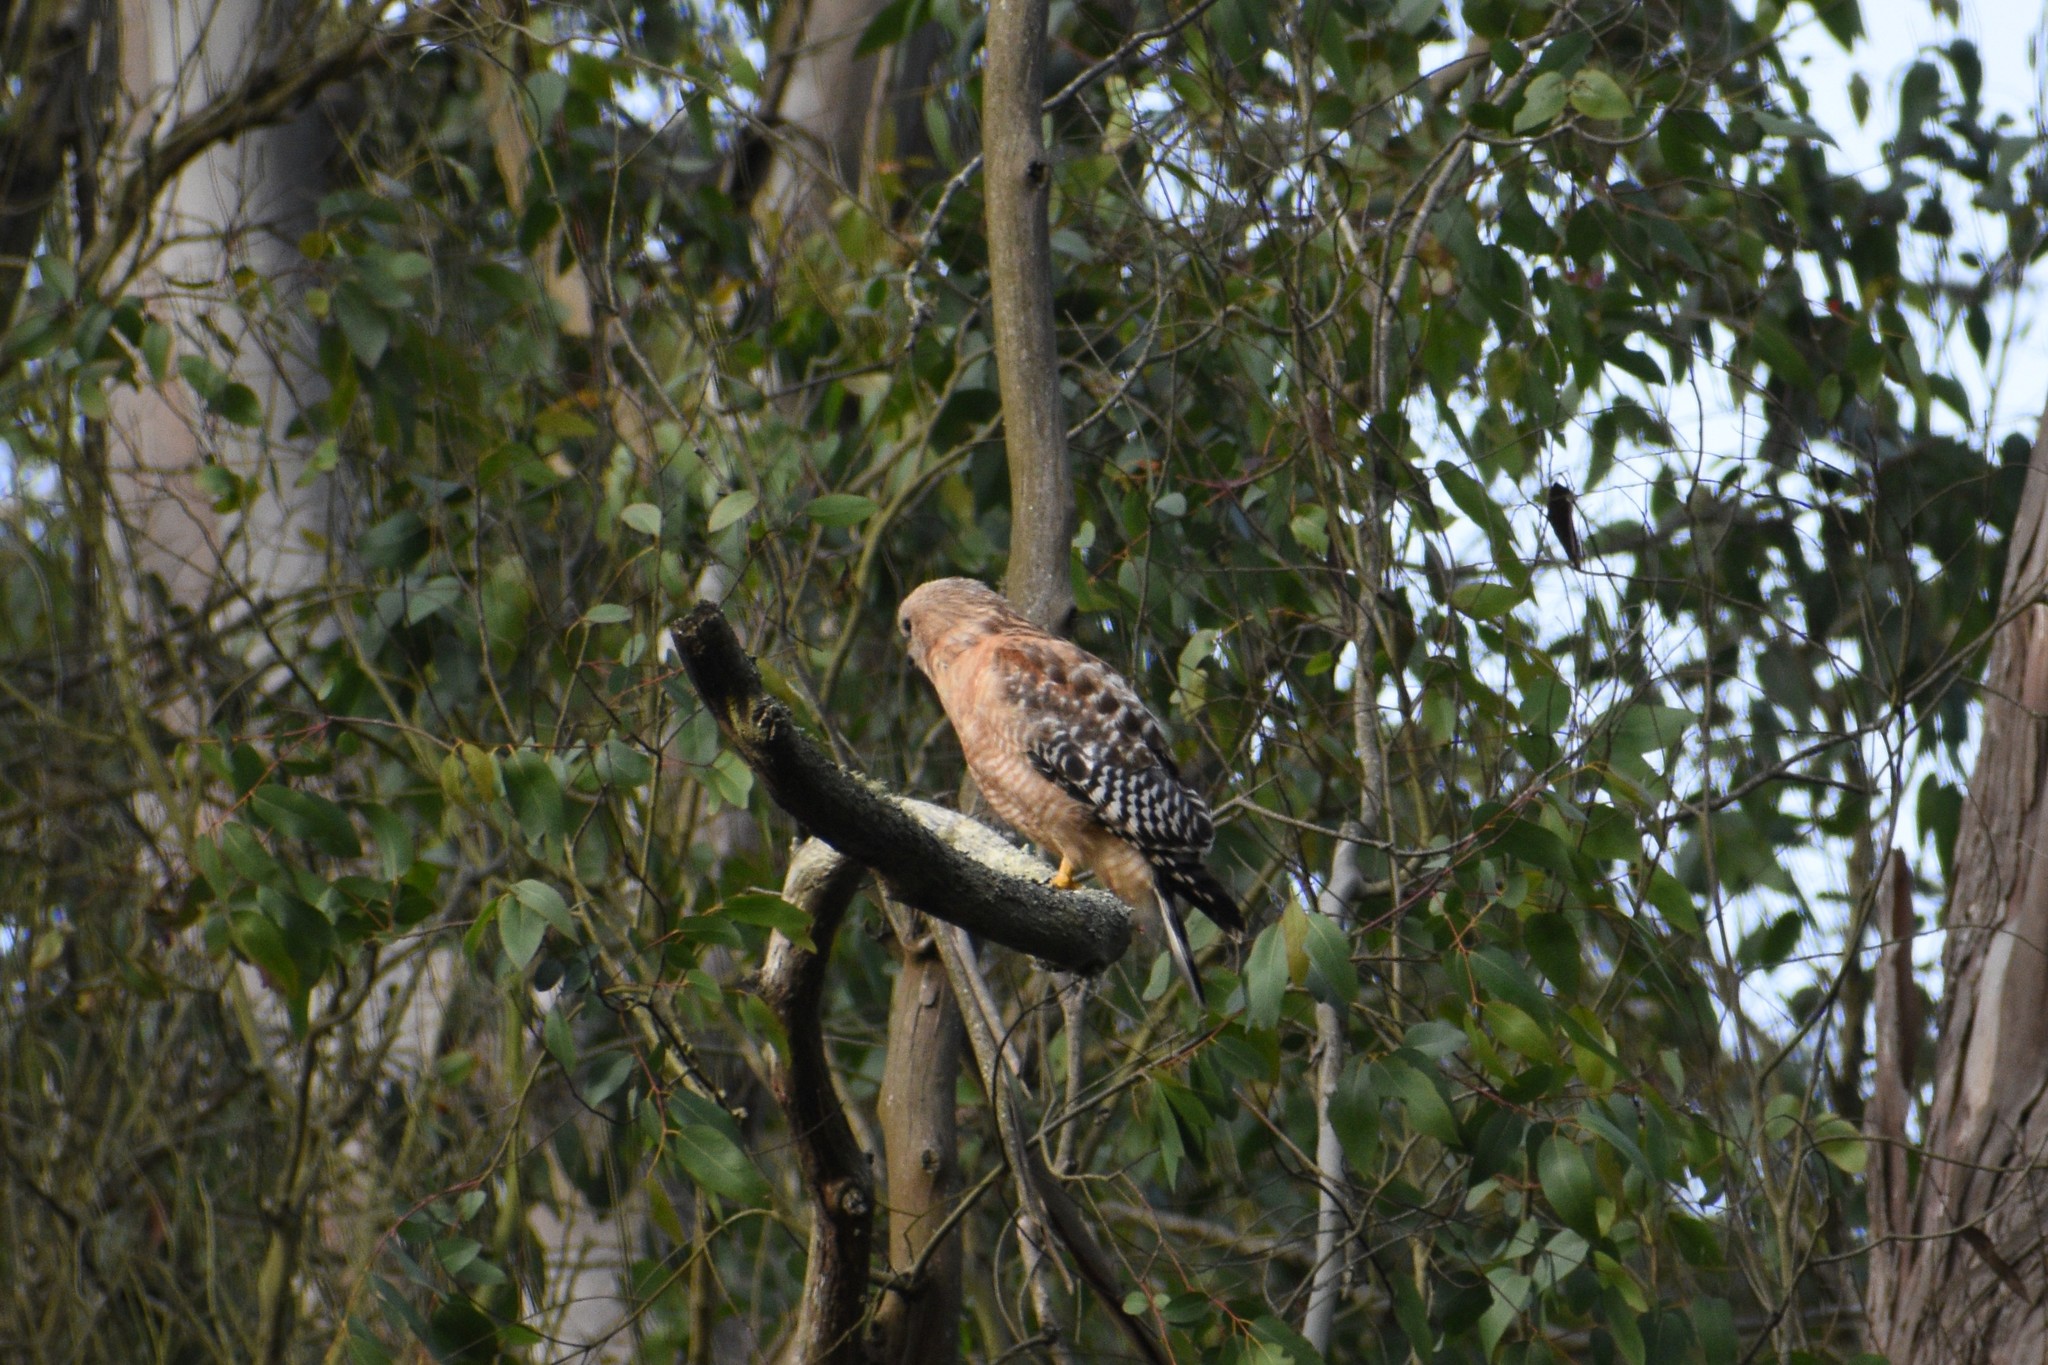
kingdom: Animalia
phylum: Chordata
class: Aves
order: Accipitriformes
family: Accipitridae
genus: Buteo
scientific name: Buteo lineatus
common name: Red-shouldered hawk
